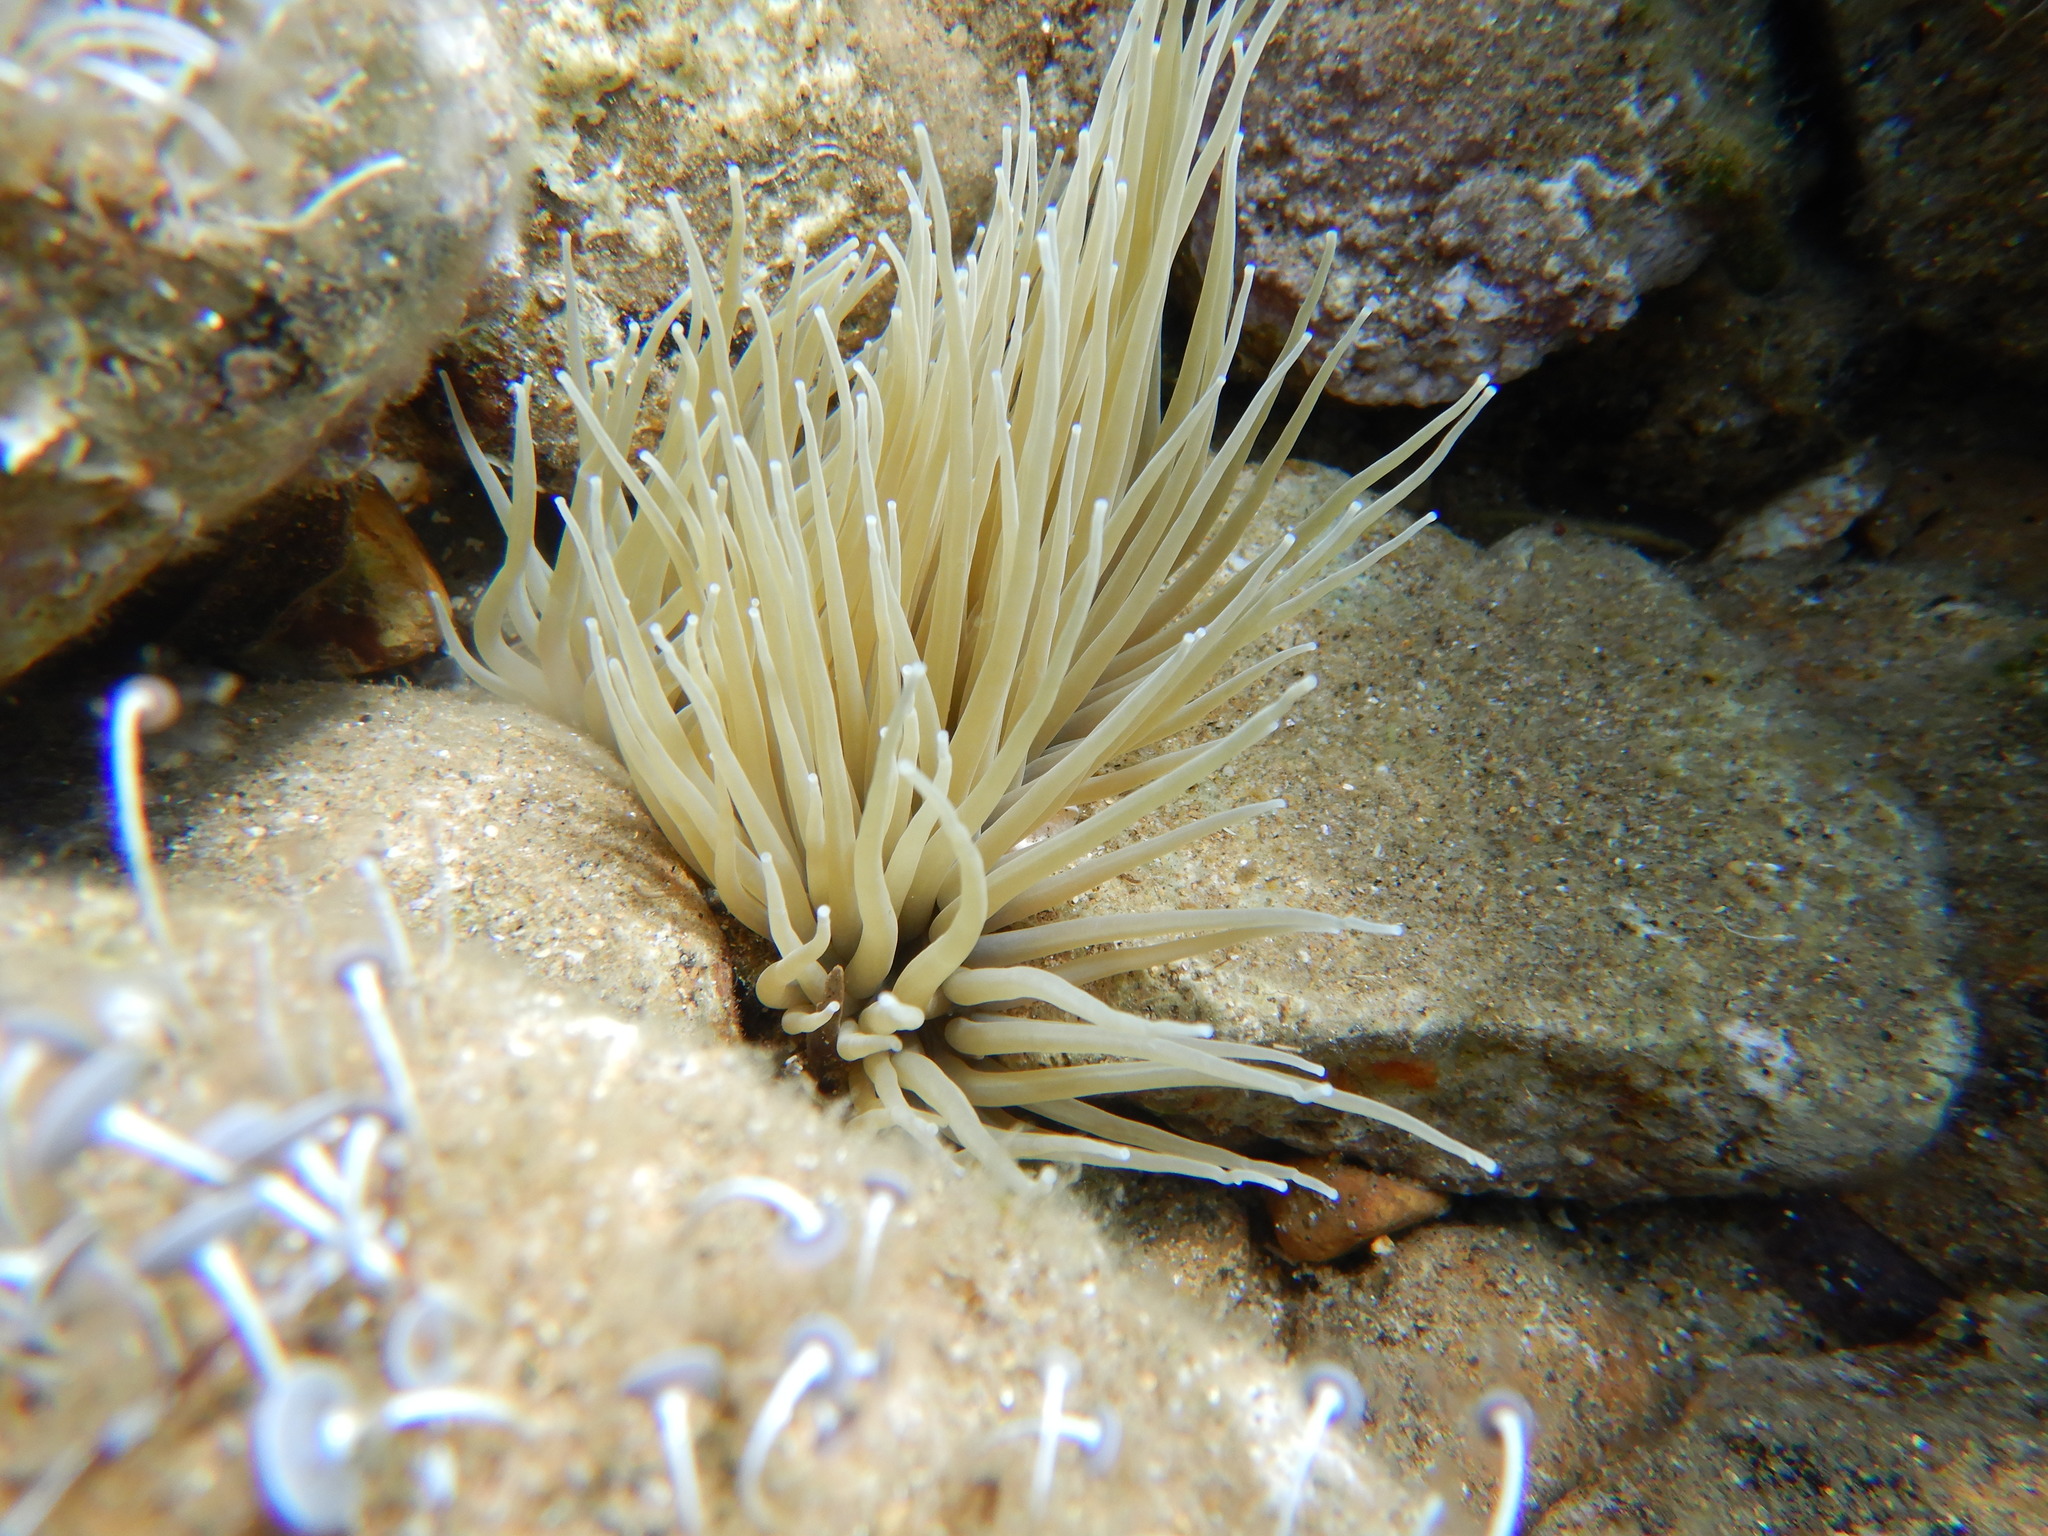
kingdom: Animalia
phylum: Cnidaria
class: Anthozoa
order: Actiniaria
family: Actiniidae
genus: Anemonia
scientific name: Anemonia viridis
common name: Snakelocks anemone
